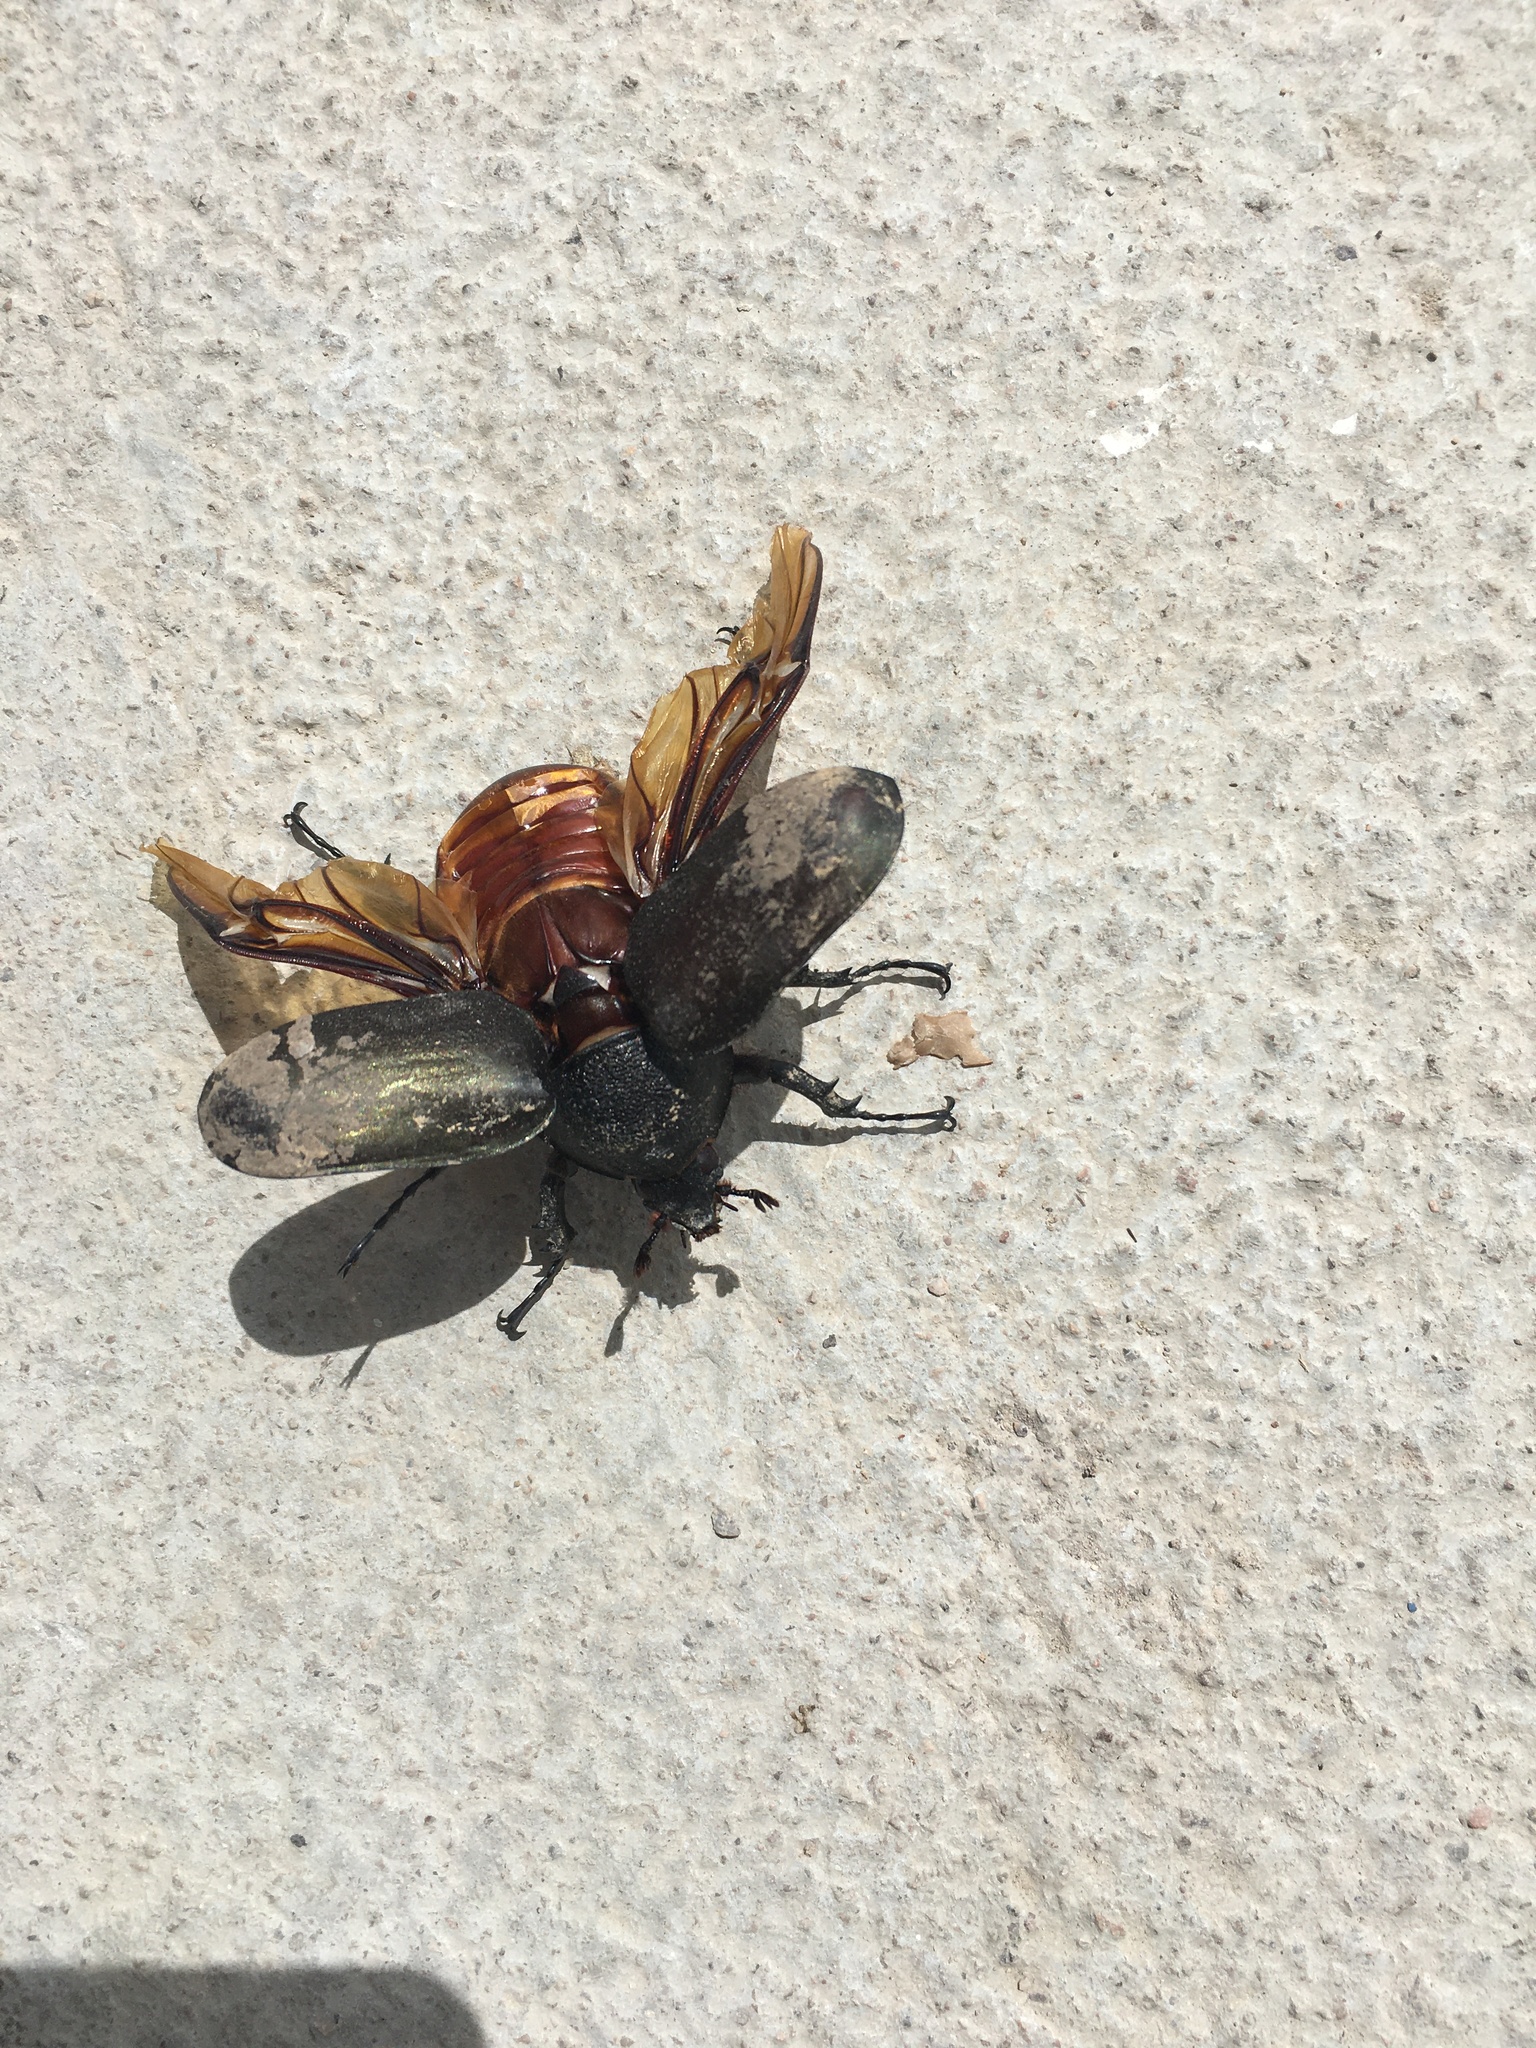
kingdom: Animalia
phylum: Arthropoda
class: Insecta
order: Coleoptera
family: Scarabaeidae
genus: Chalcosoma
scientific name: Chalcosoma atlas
